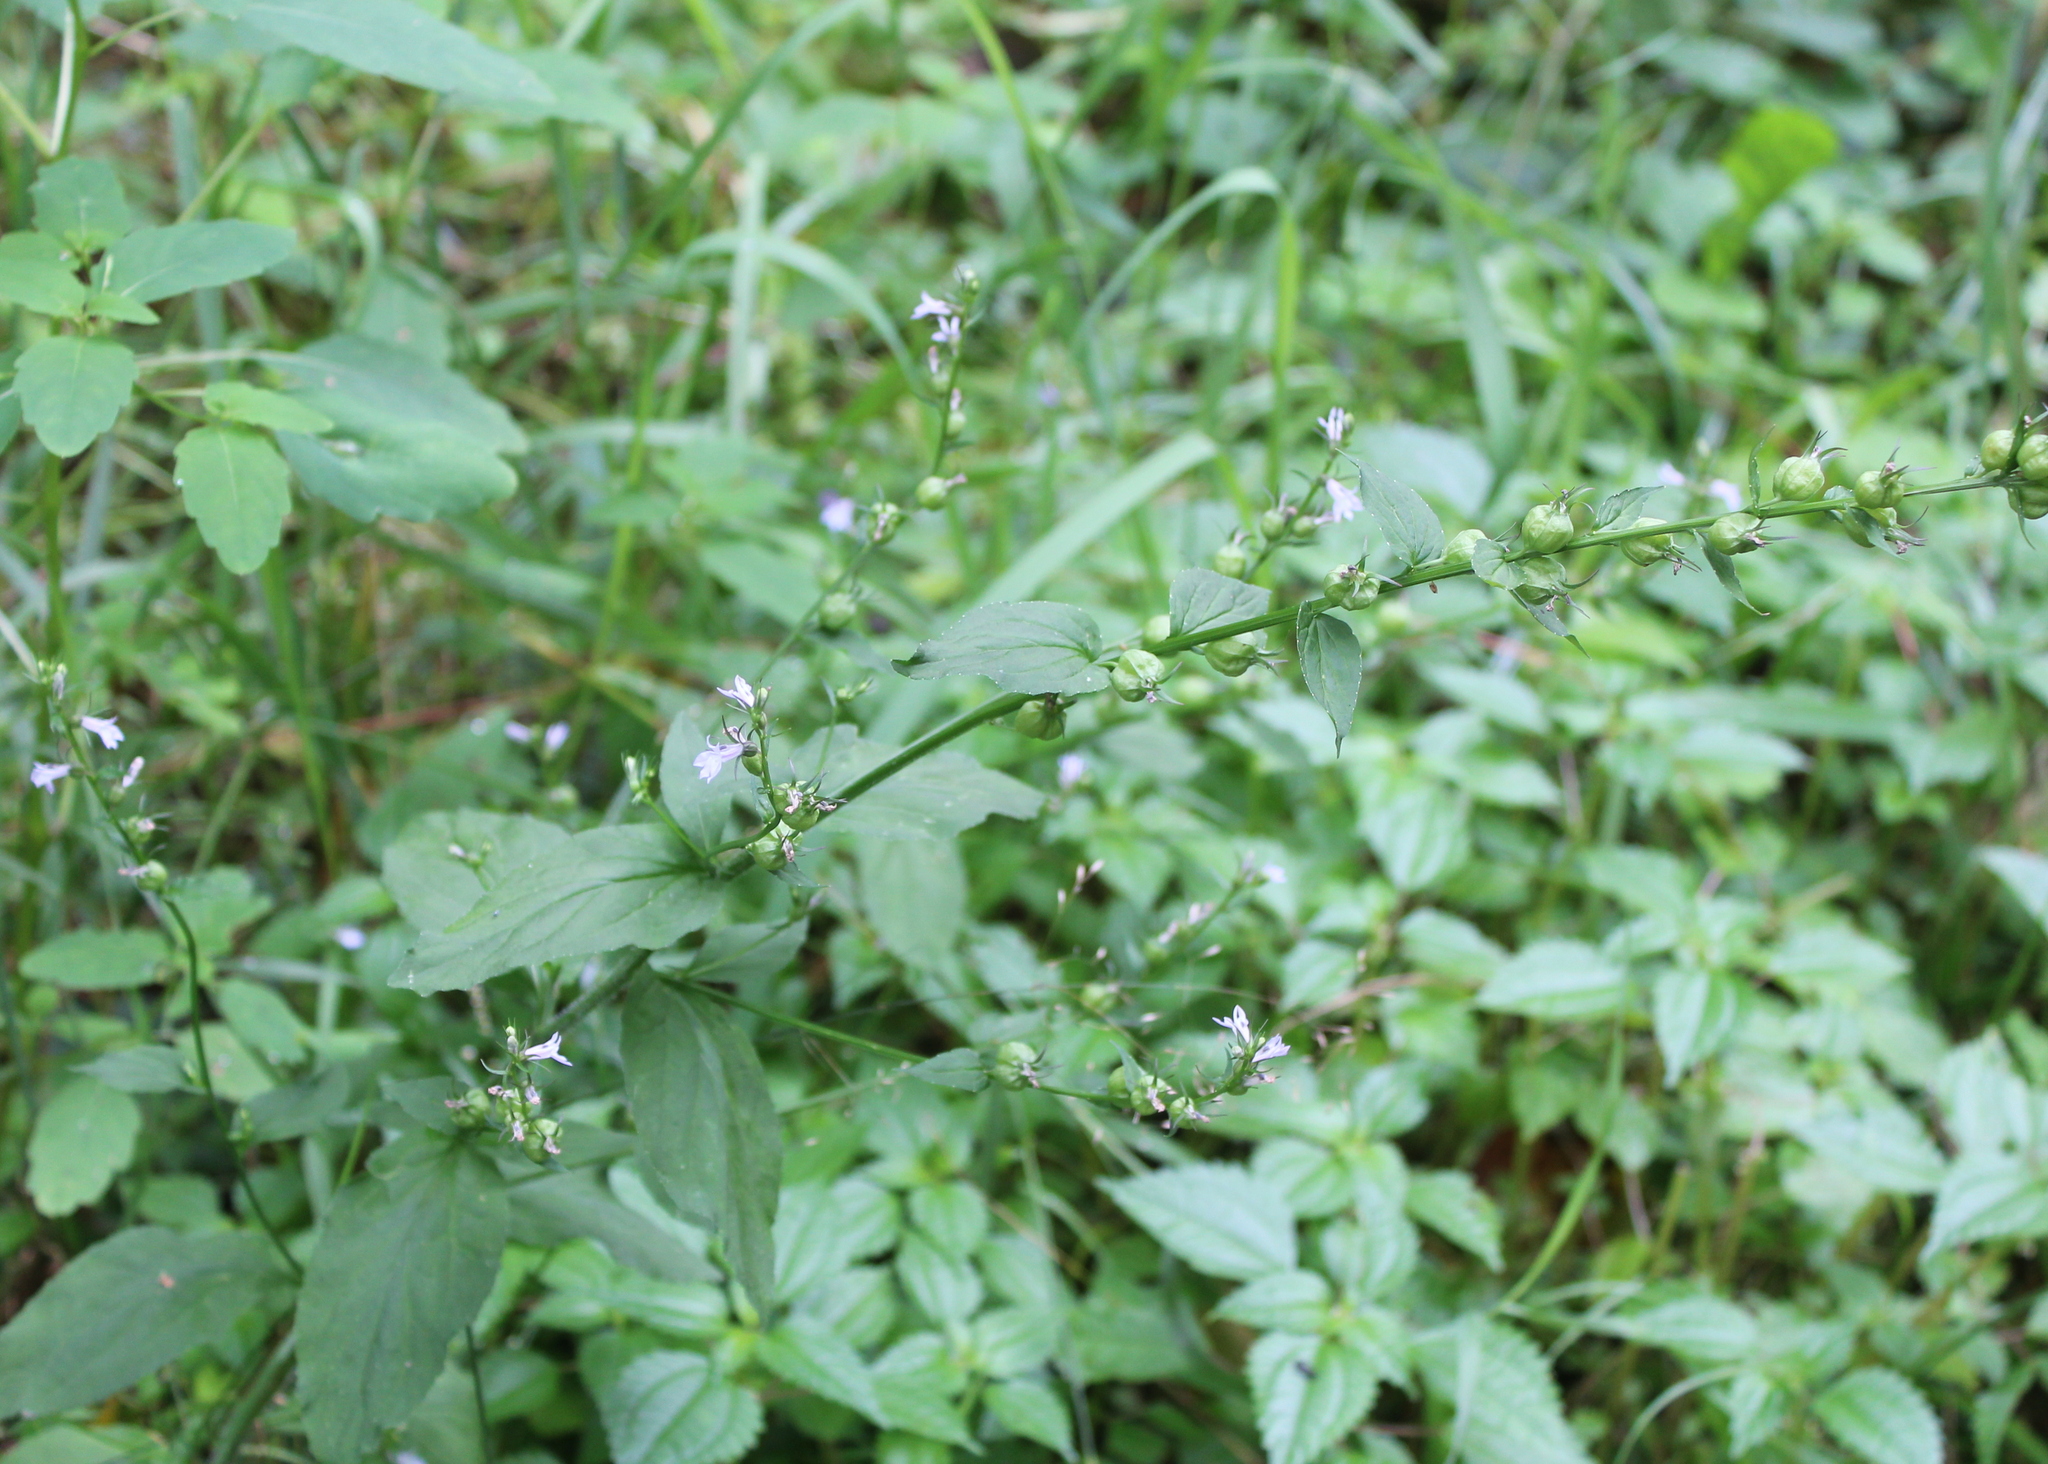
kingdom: Plantae
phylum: Tracheophyta
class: Magnoliopsida
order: Asterales
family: Campanulaceae
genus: Lobelia
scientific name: Lobelia inflata
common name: Indian tobacco
